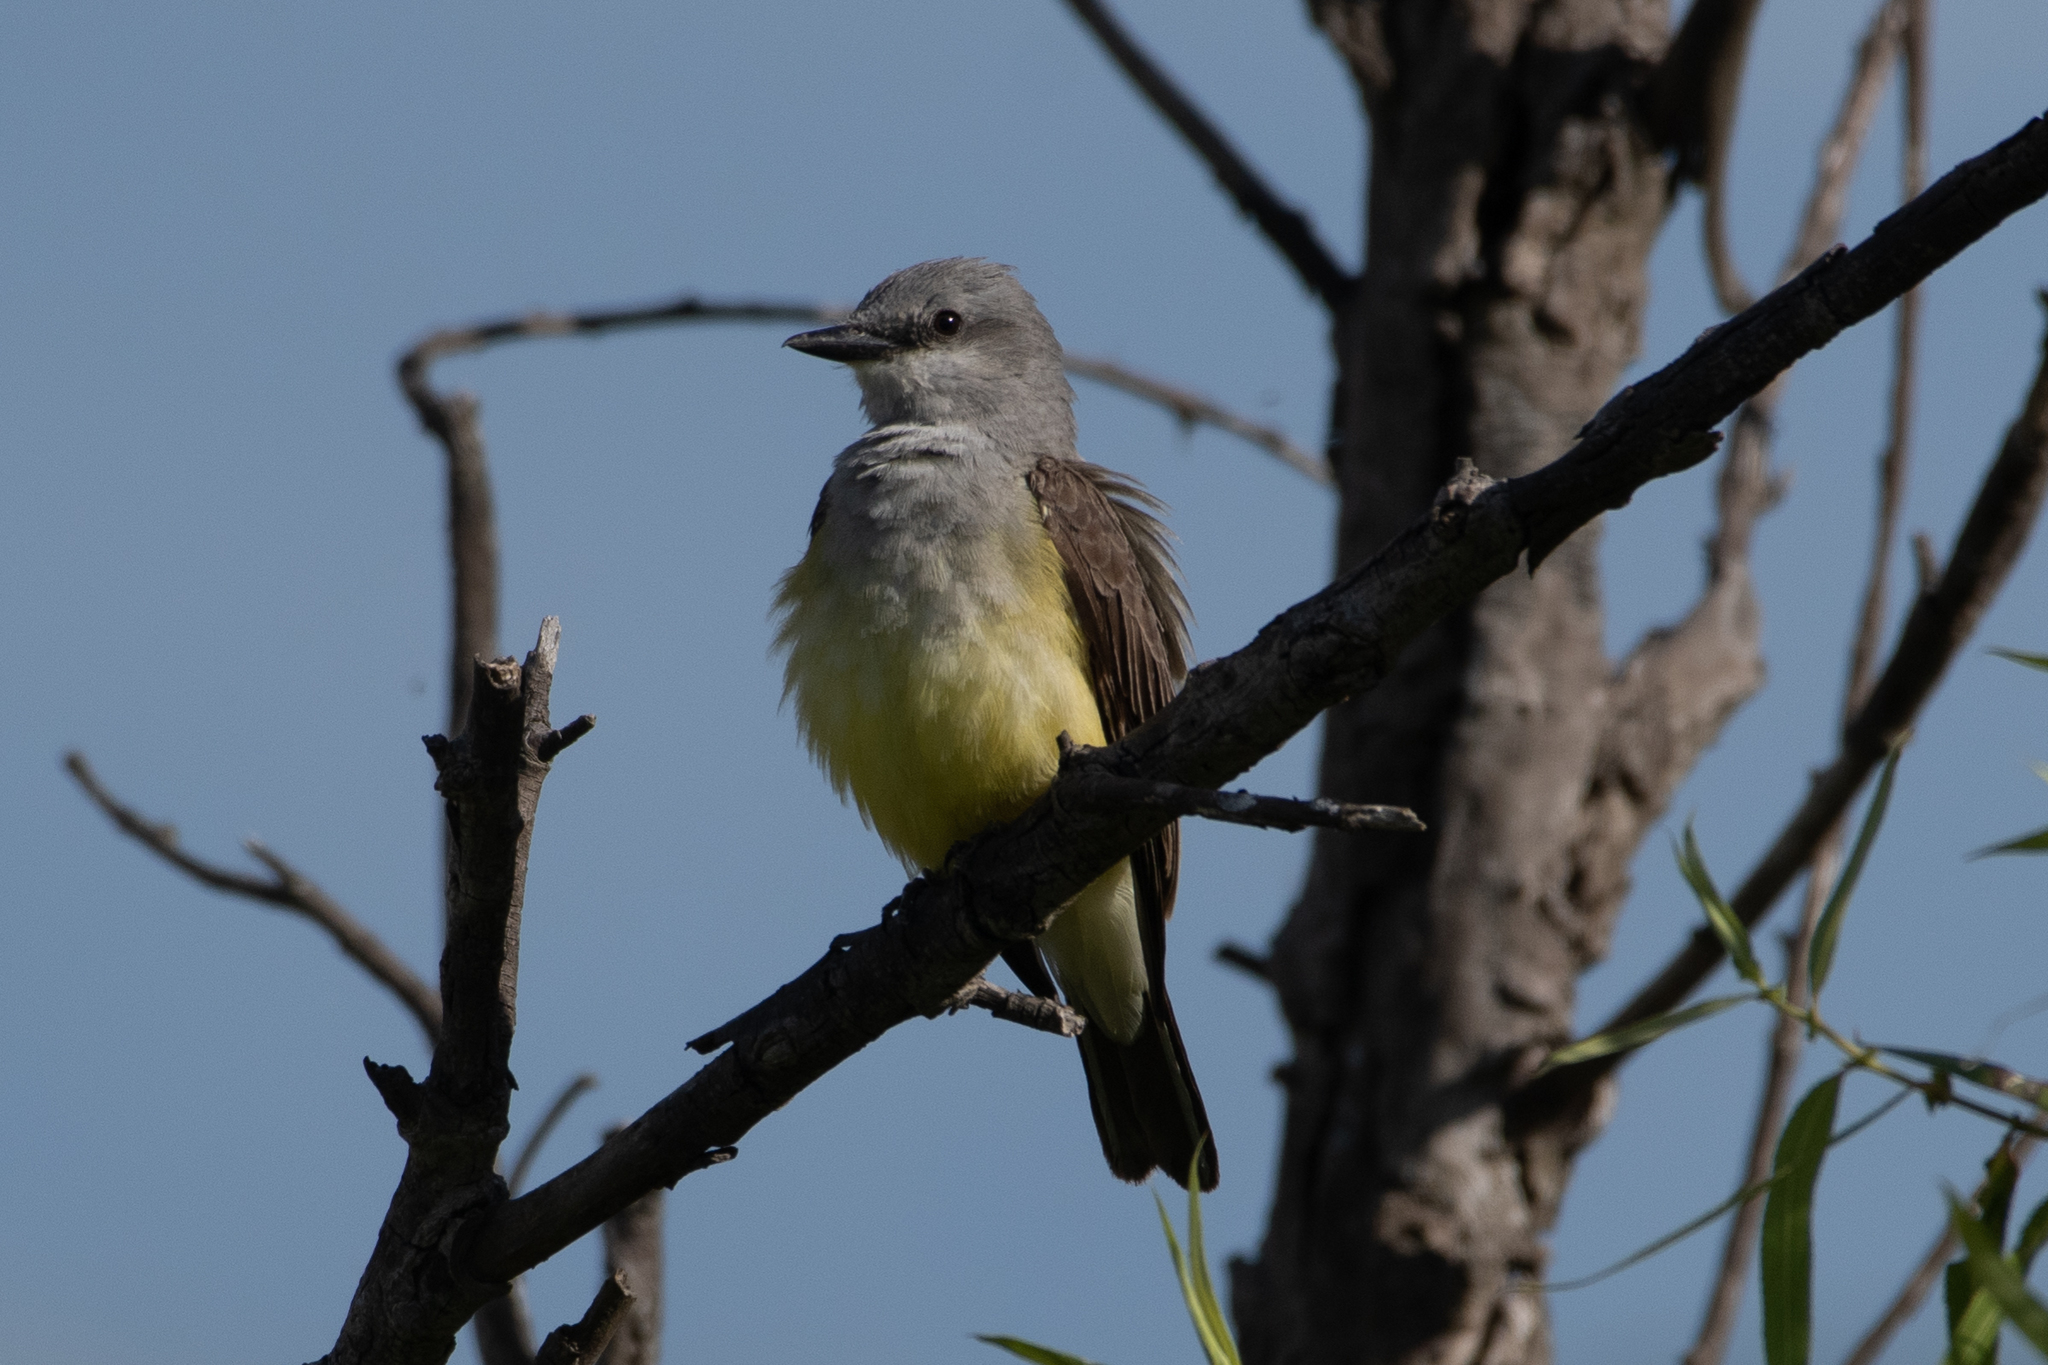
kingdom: Animalia
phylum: Chordata
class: Aves
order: Passeriformes
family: Tyrannidae
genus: Tyrannus
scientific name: Tyrannus verticalis
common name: Western kingbird
